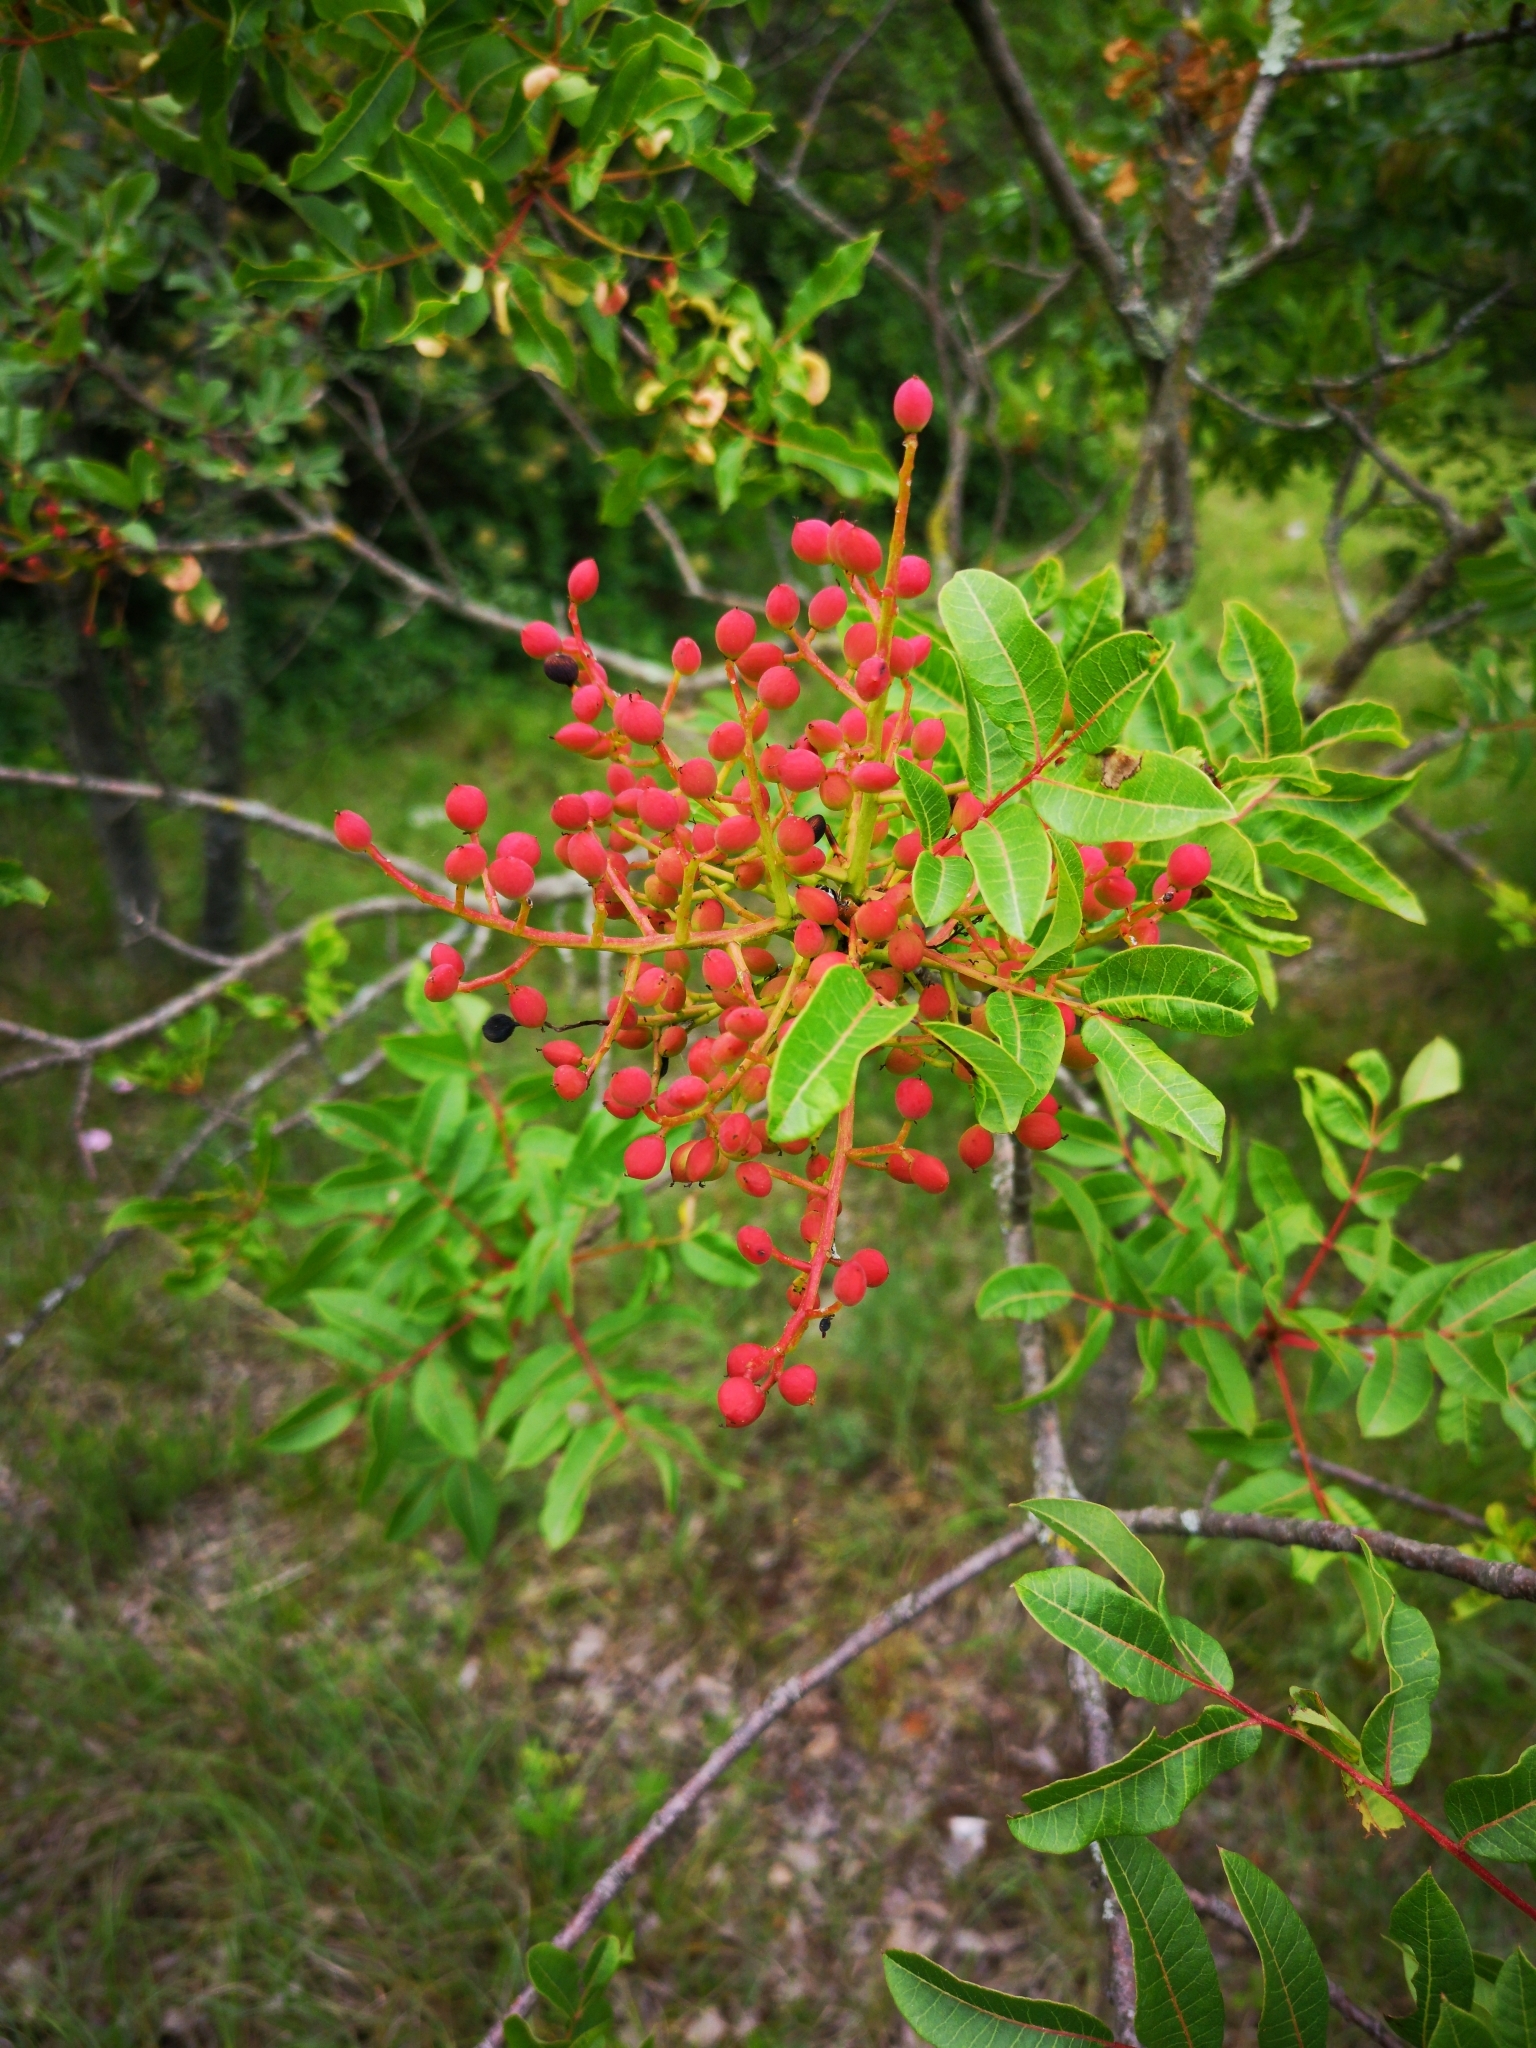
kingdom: Plantae
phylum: Tracheophyta
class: Magnoliopsida
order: Sapindales
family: Anacardiaceae
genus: Pistacia
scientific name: Pistacia terebinthus
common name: Terebinth
